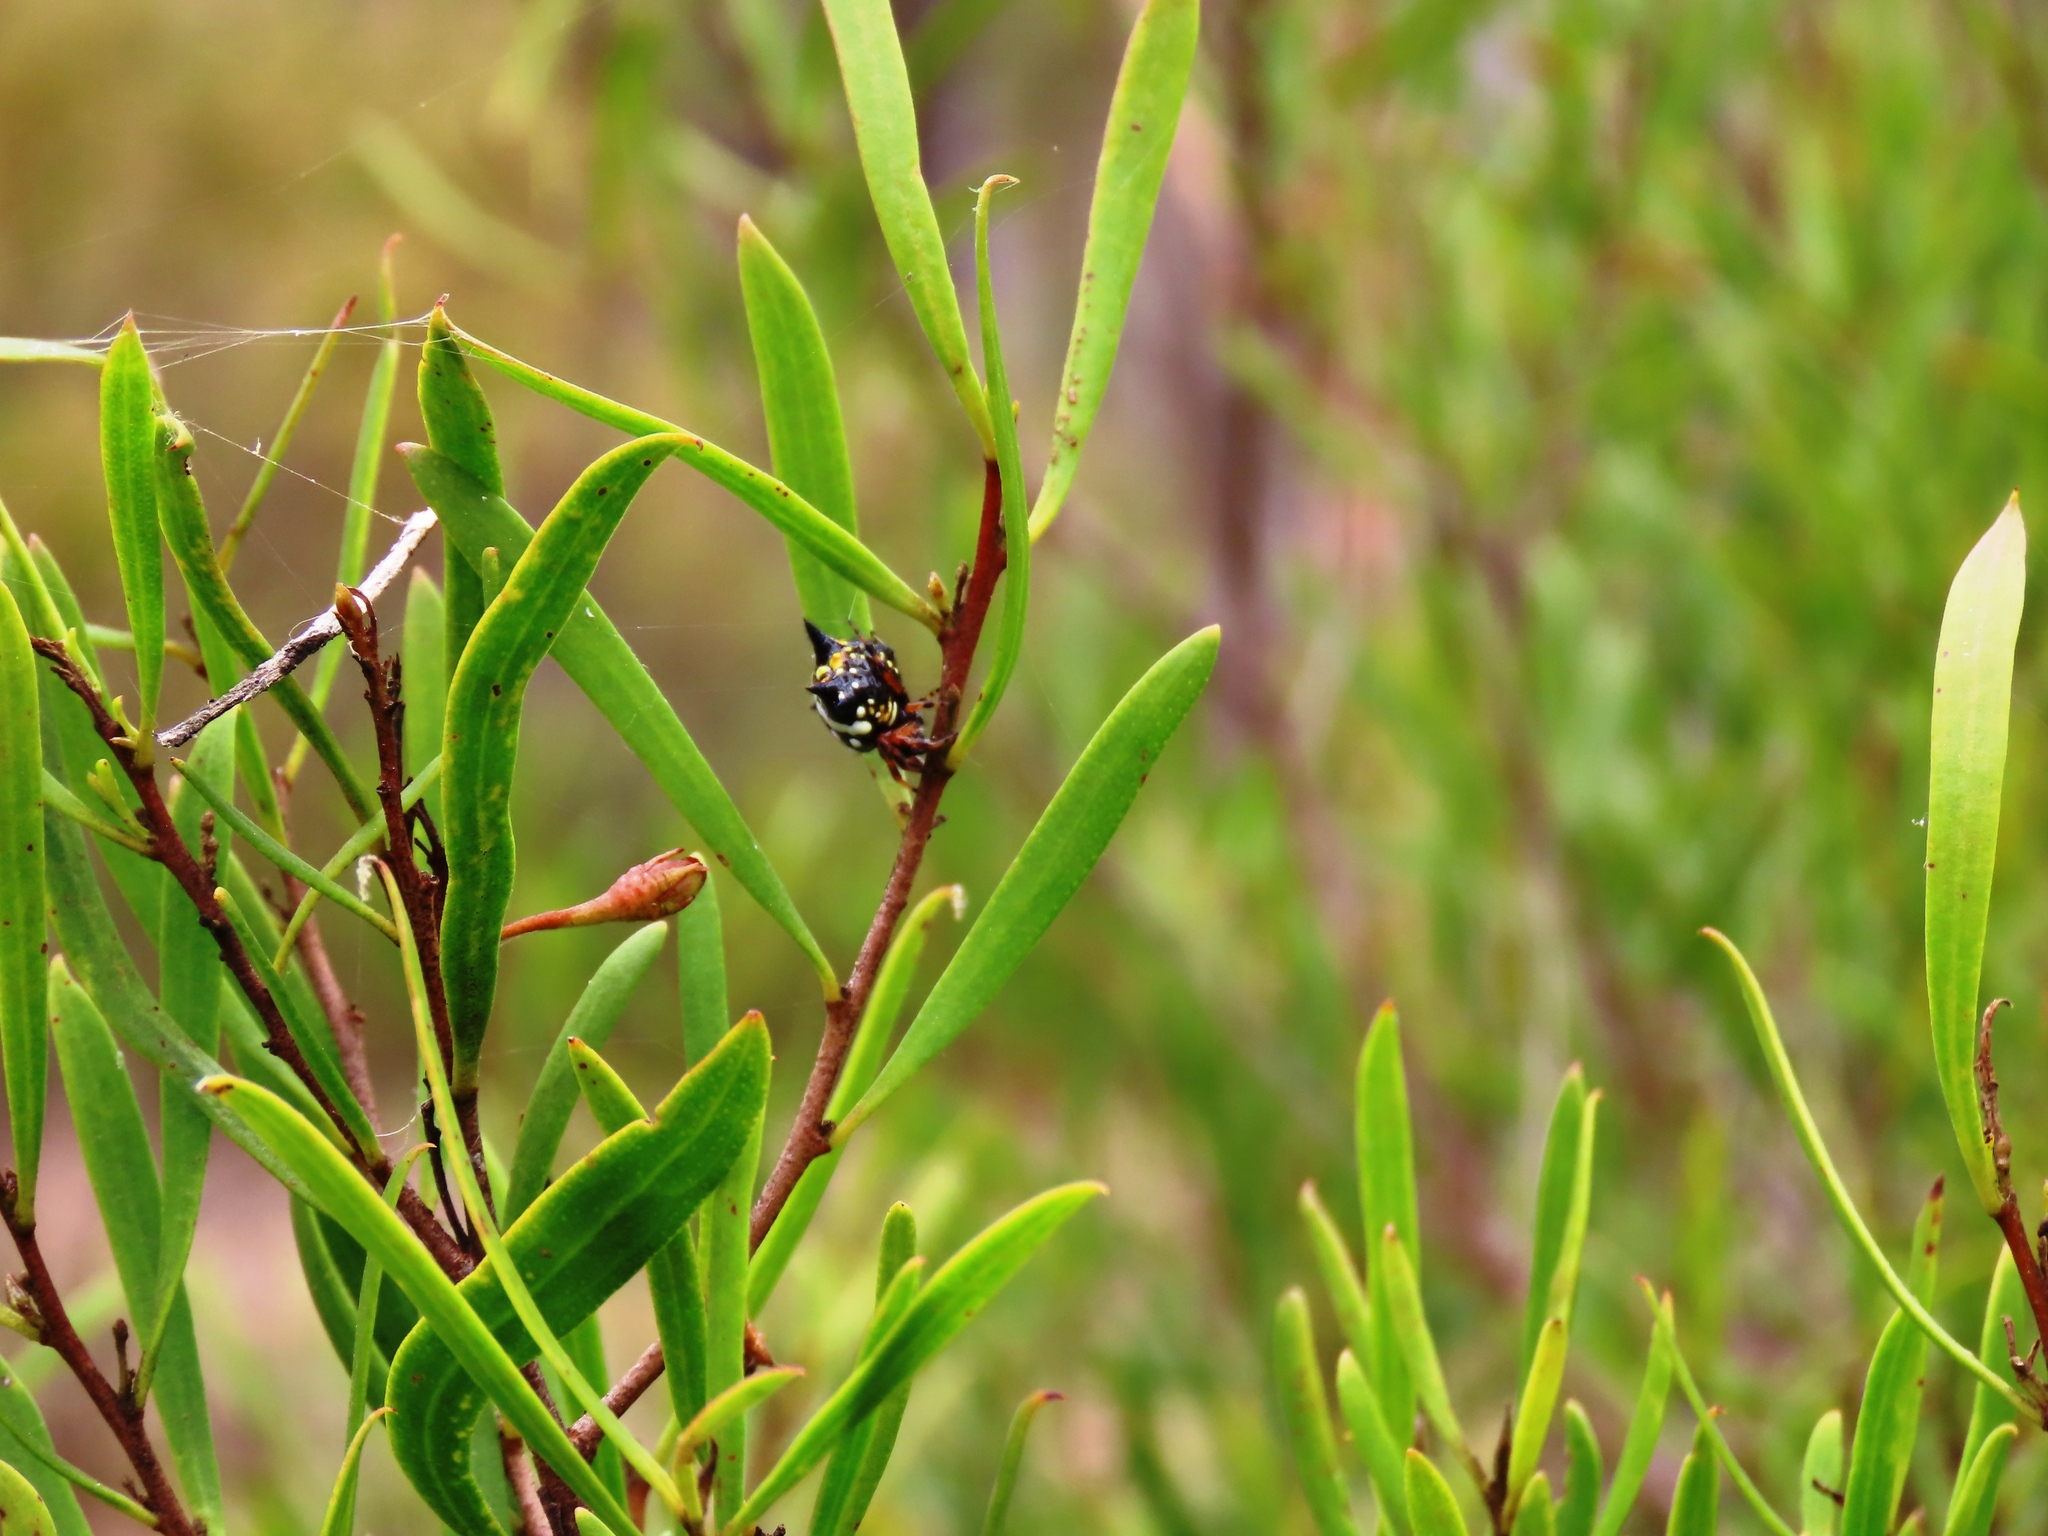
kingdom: Animalia
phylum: Arthropoda
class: Arachnida
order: Araneae
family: Araneidae
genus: Austracantha
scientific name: Austracantha minax
